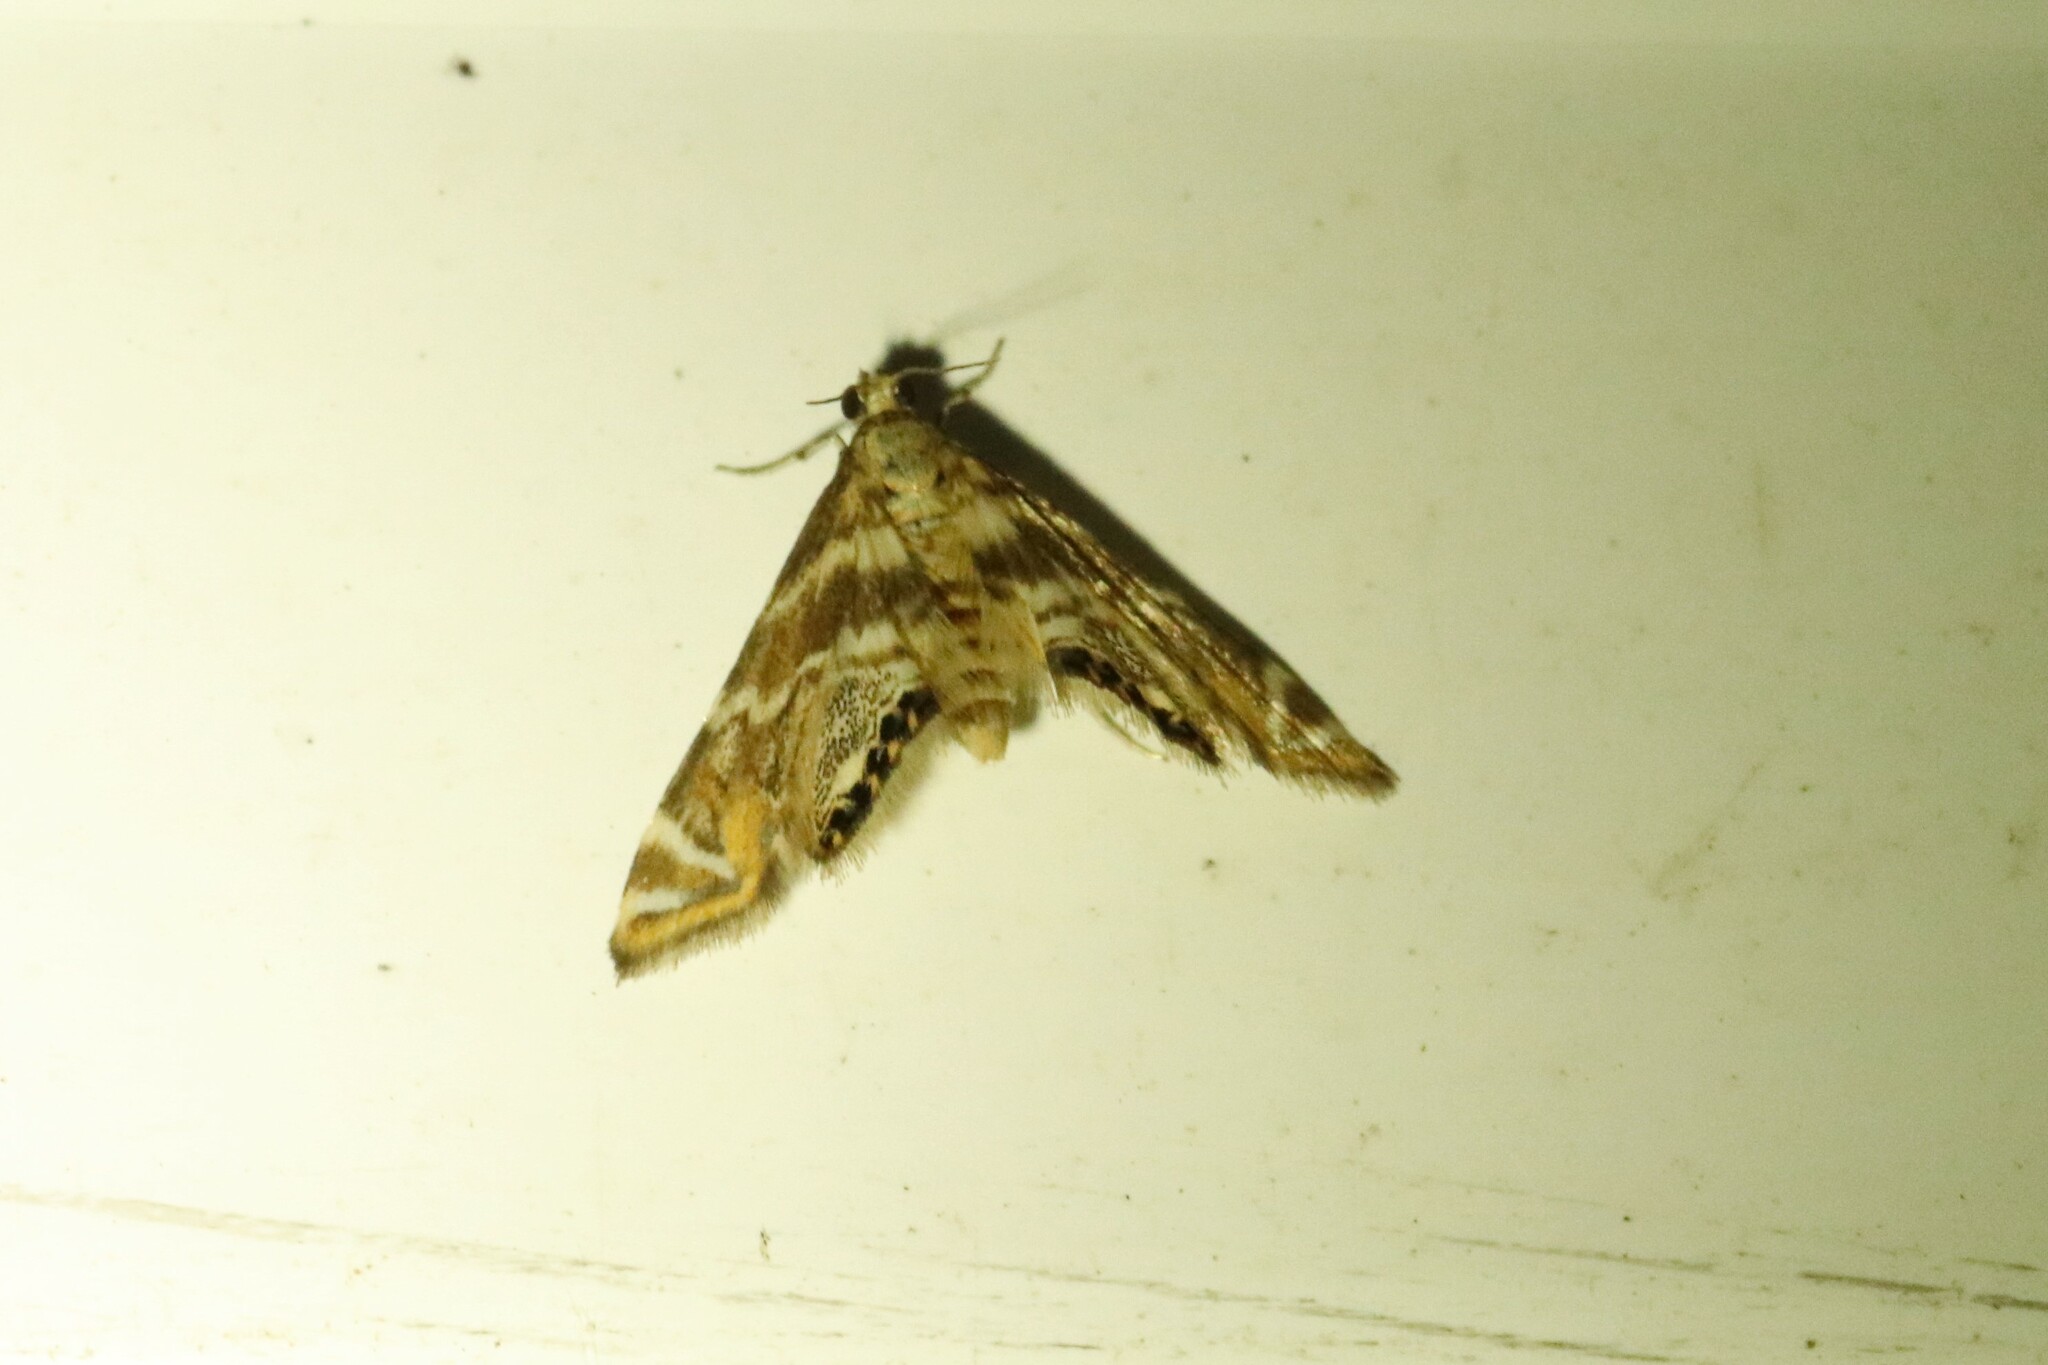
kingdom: Animalia
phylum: Arthropoda
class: Insecta
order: Lepidoptera
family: Crambidae
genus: Petrophila
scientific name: Petrophila canadensis
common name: Canadian petrophila
